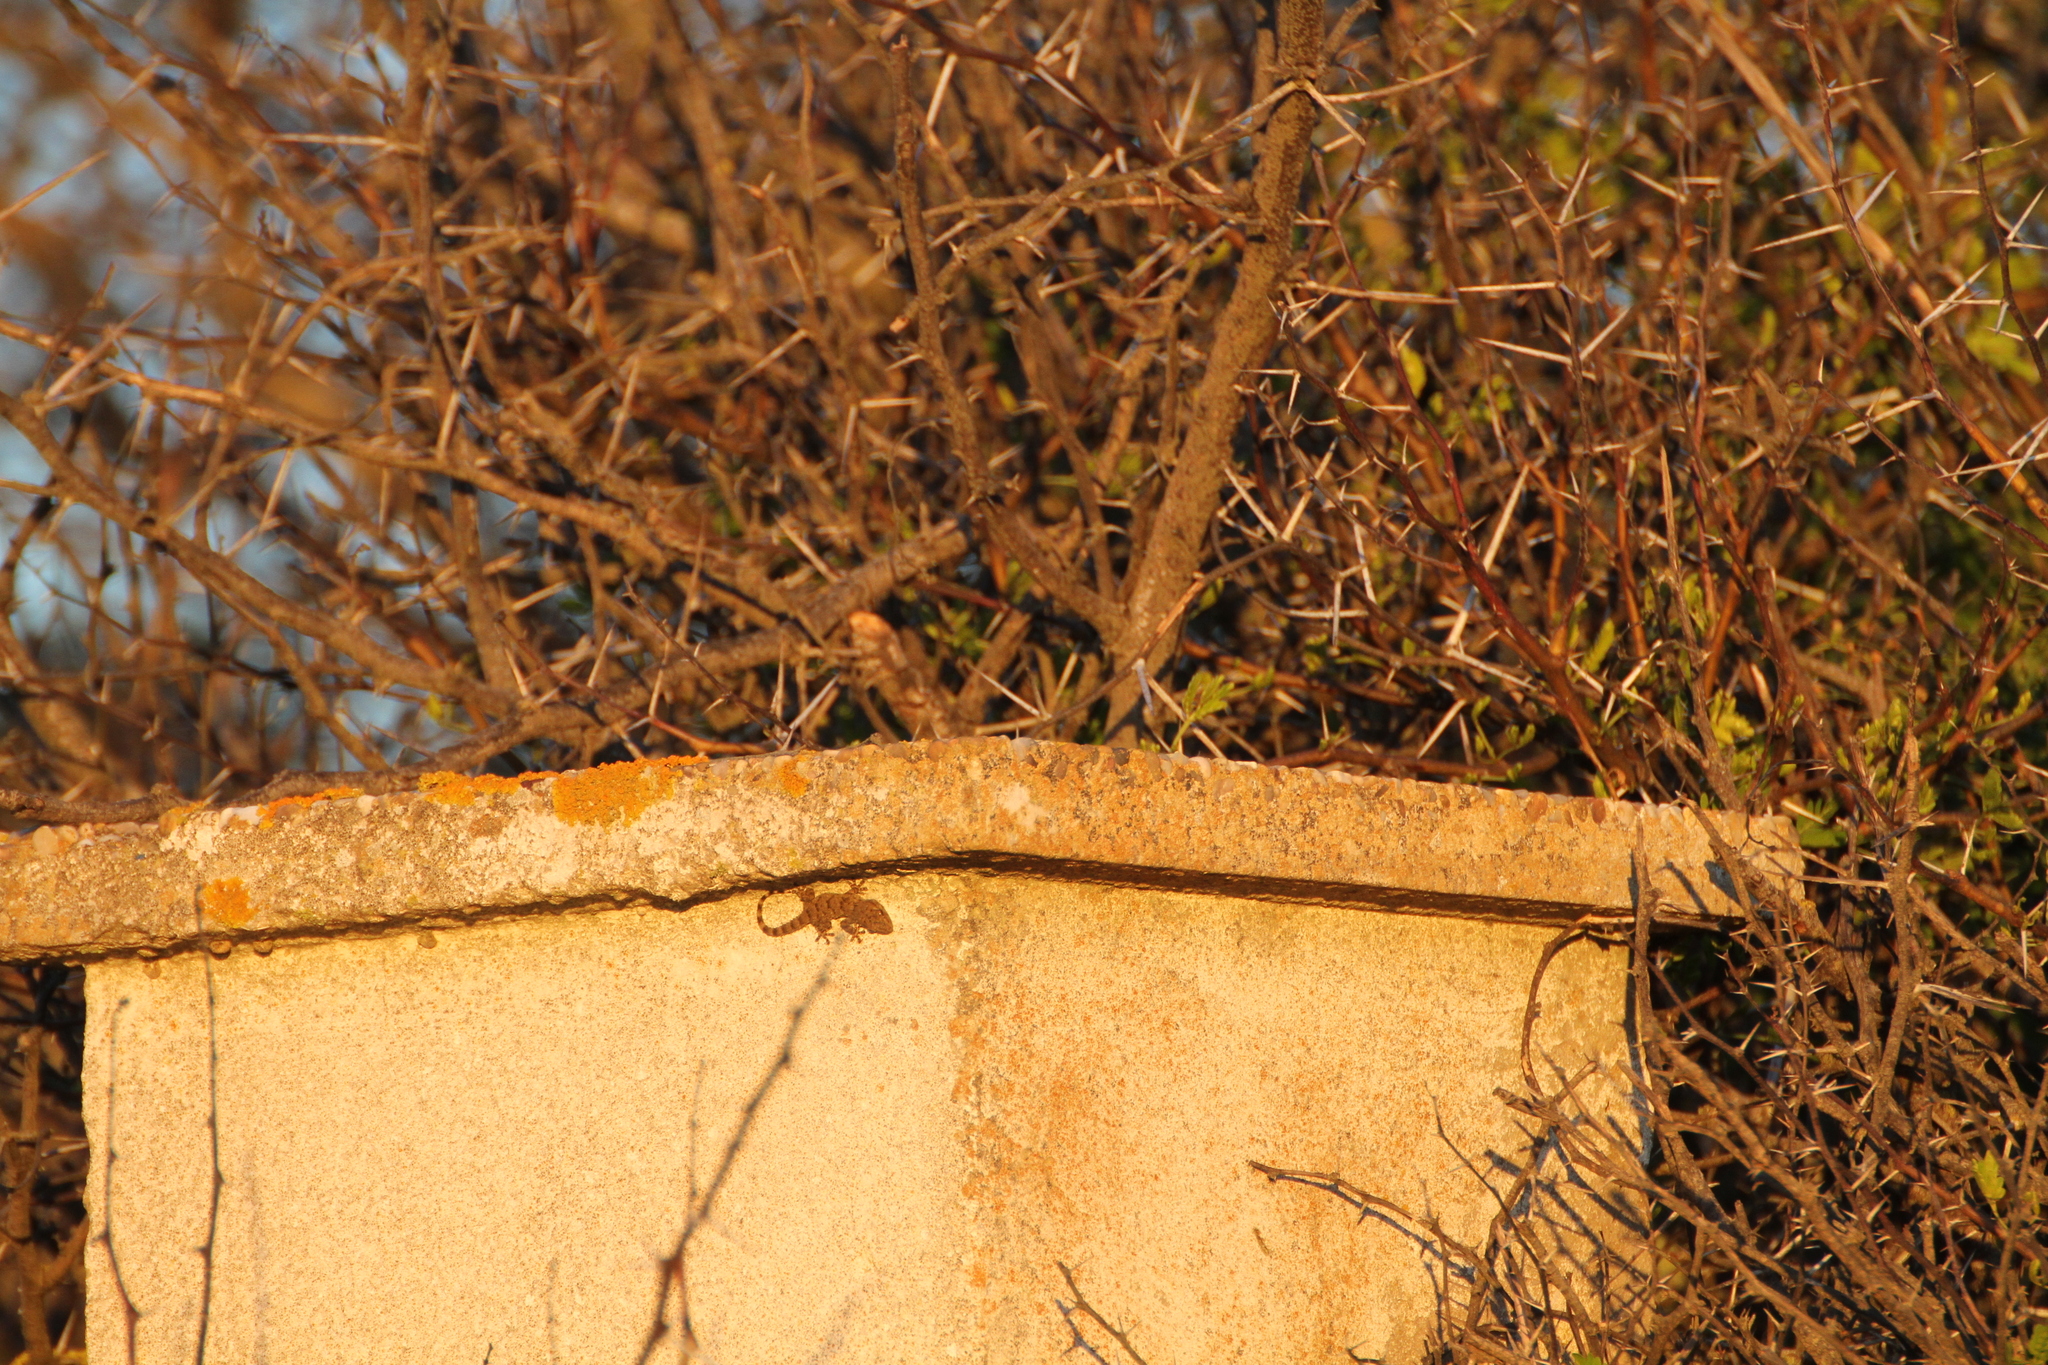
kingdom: Animalia
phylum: Chordata
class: Squamata
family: Phyllodactylidae
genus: Tarentola
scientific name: Tarentola mauritanica
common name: Moorish gecko
